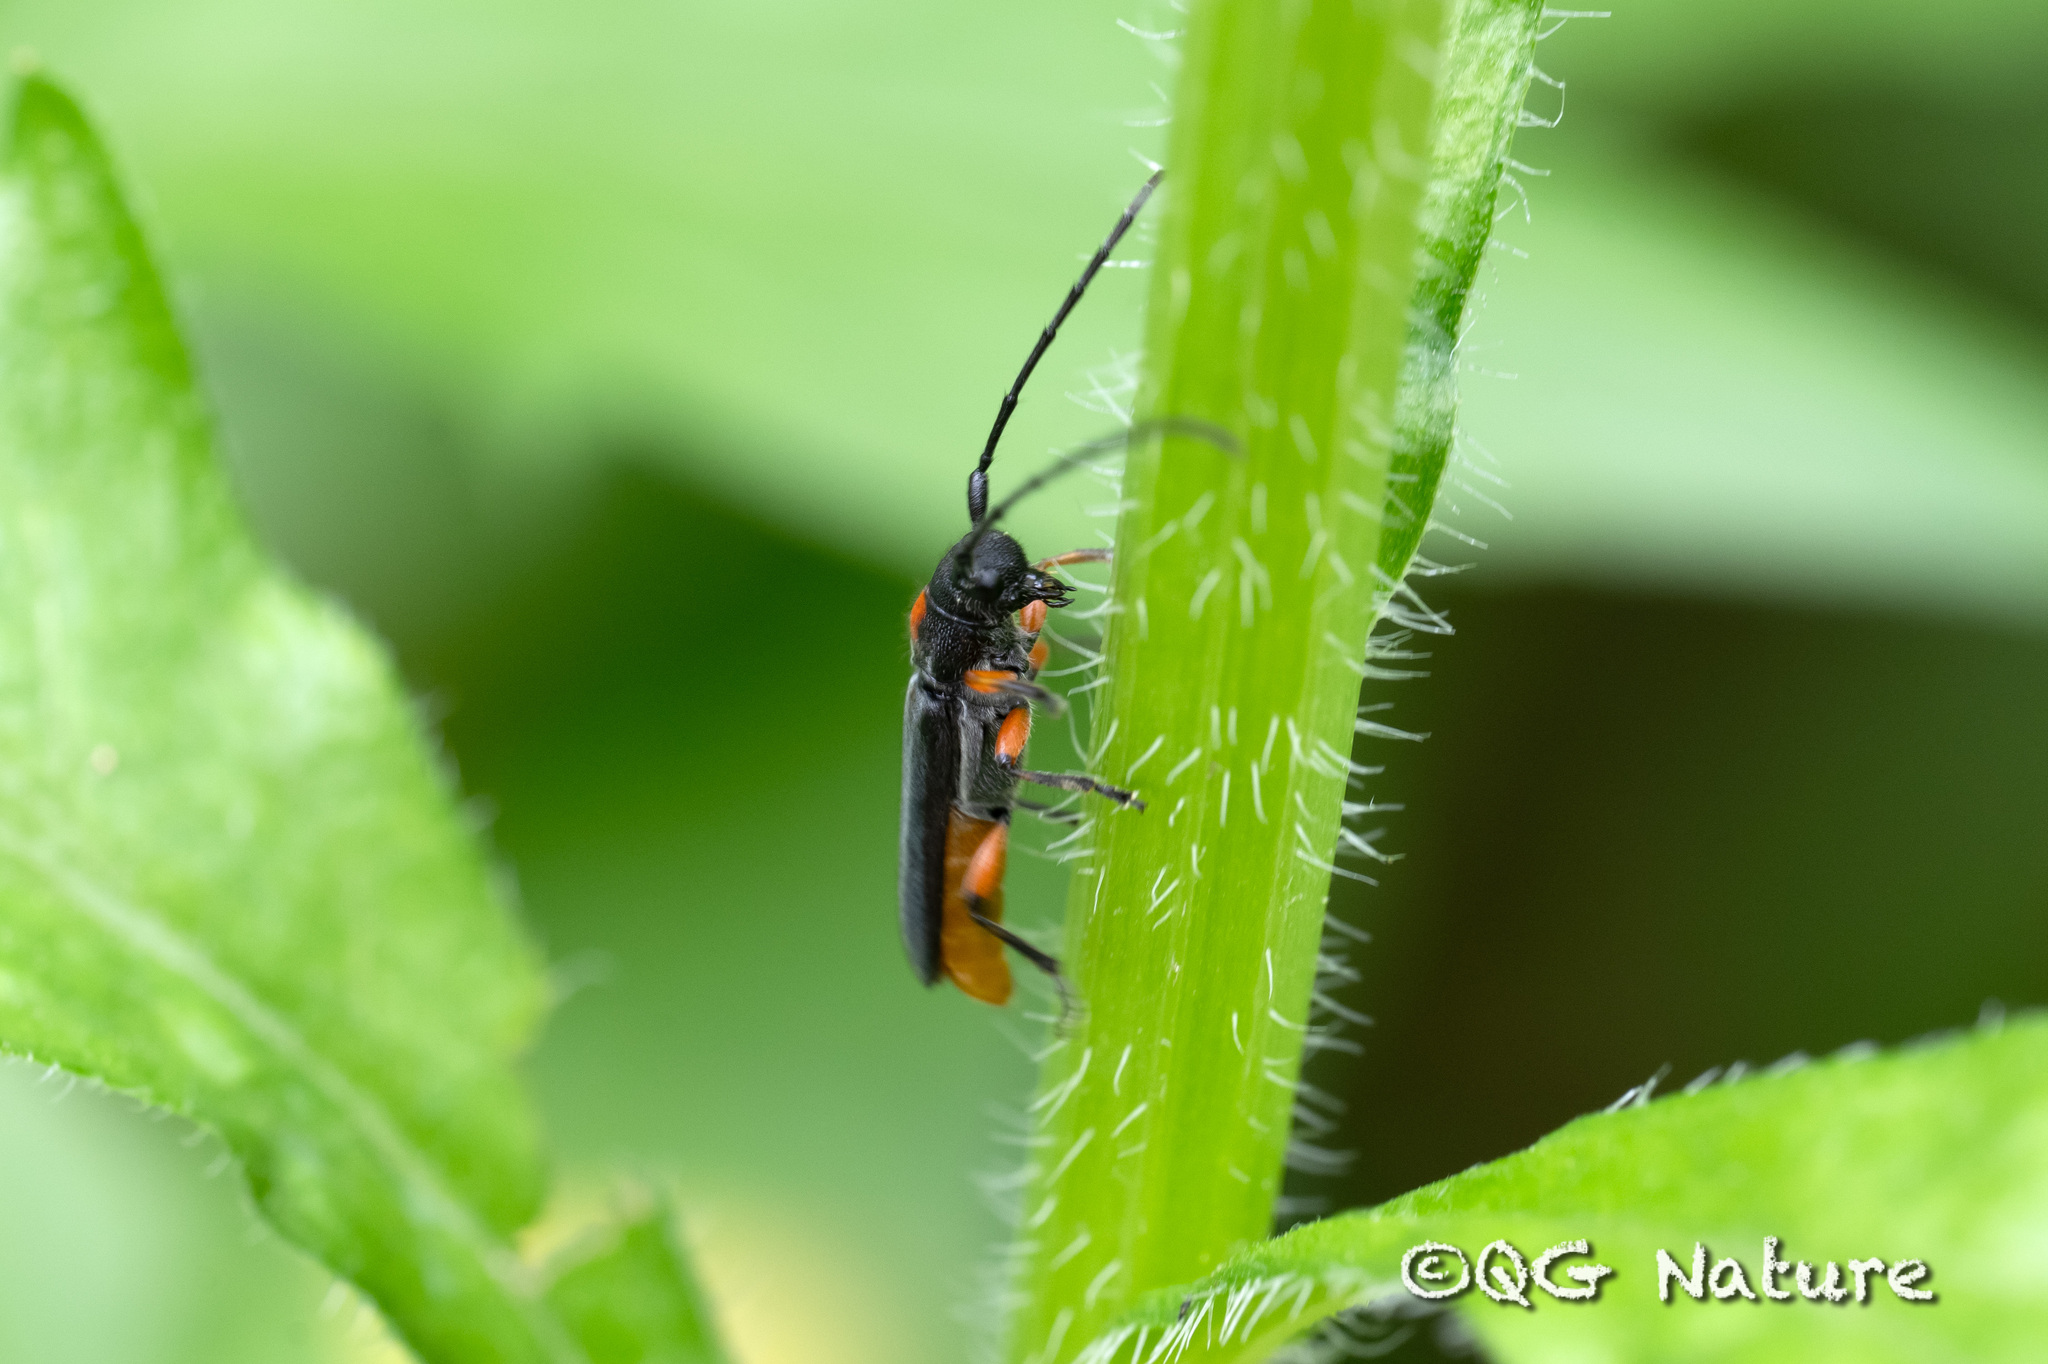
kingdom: Animalia
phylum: Arthropoda
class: Insecta
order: Coleoptera
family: Cerambycidae
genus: Phytoecia
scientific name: Phytoecia rufiventris
